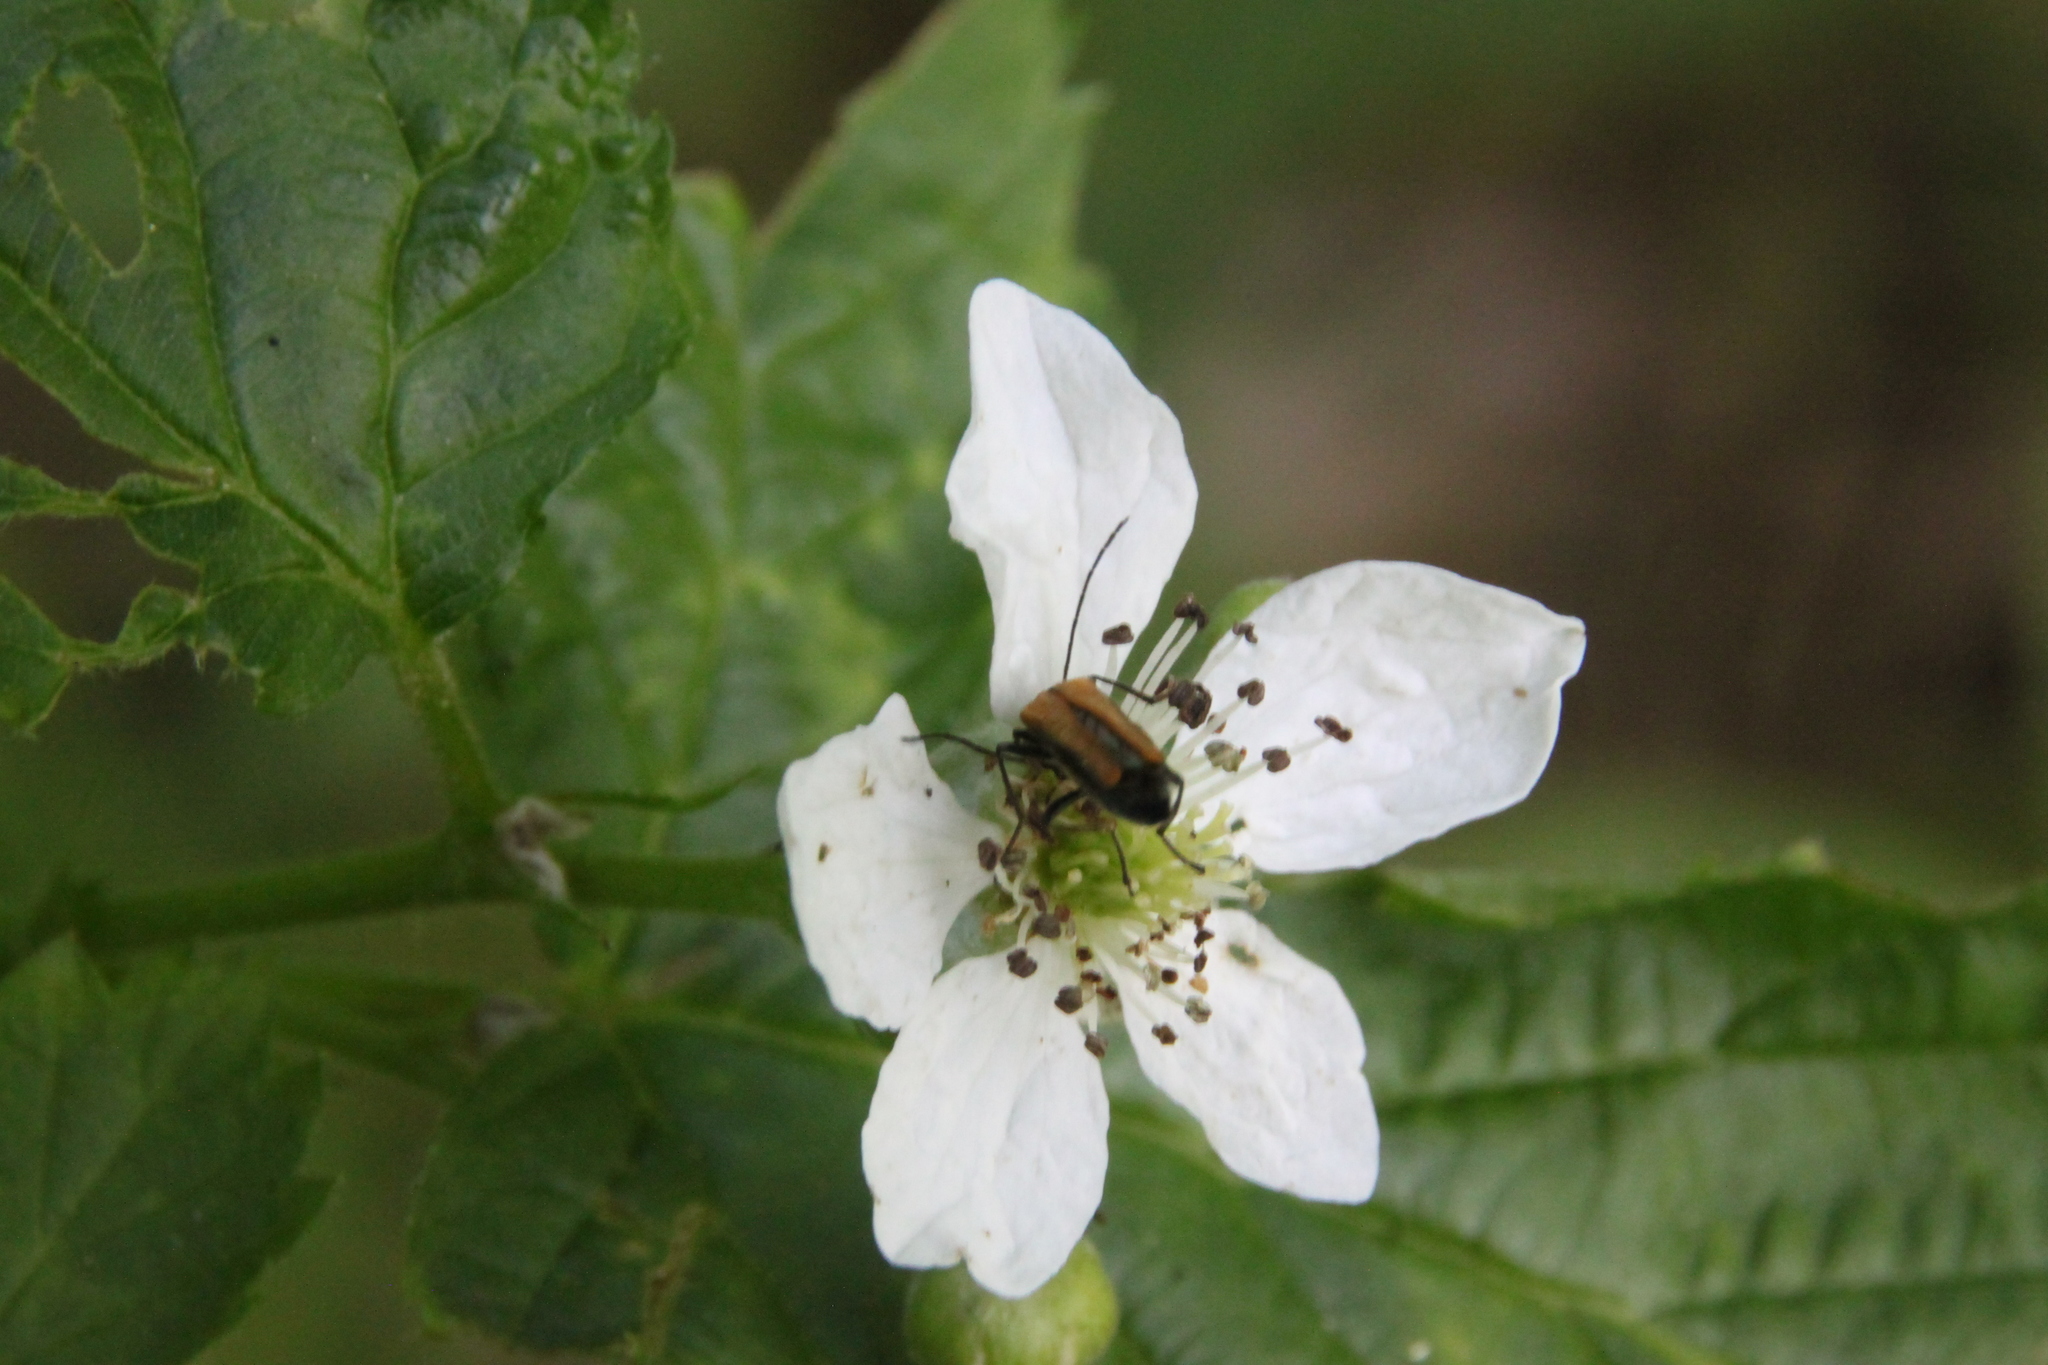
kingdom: Animalia
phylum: Arthropoda
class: Insecta
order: Coleoptera
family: Oedemeridae
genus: Oedemera
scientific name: Oedemera femorata
